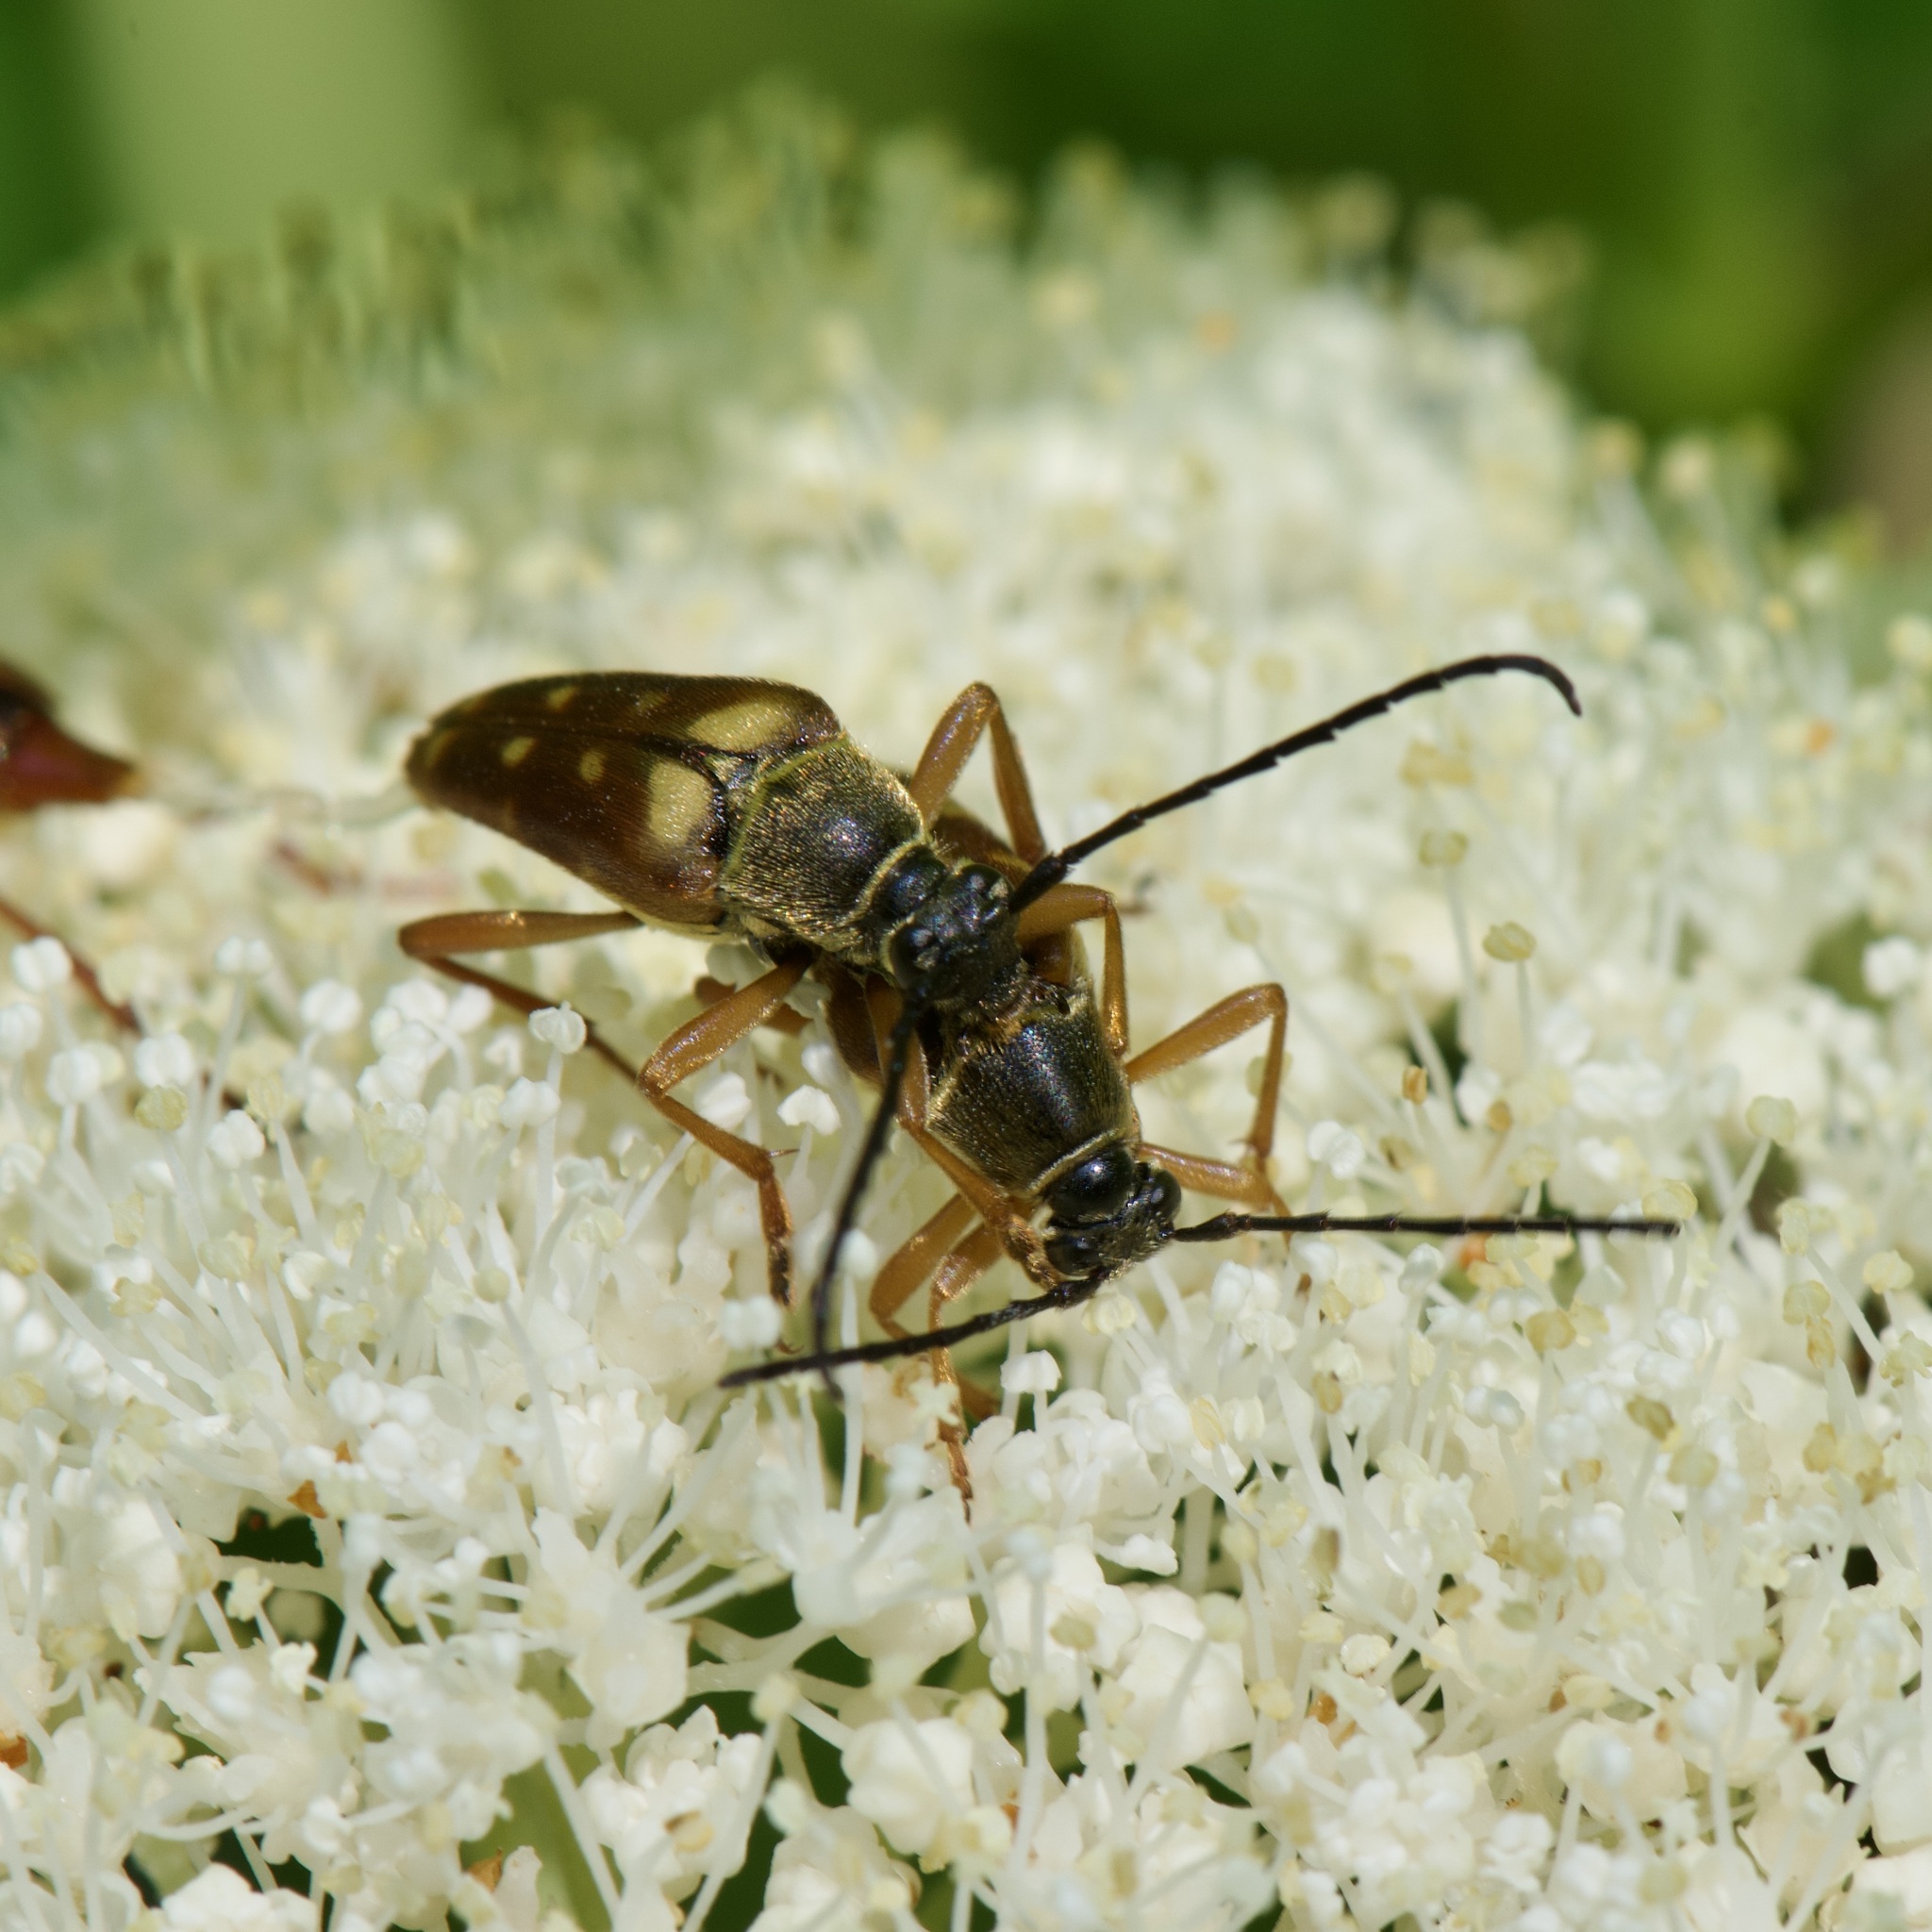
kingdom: Animalia
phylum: Arthropoda
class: Insecta
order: Coleoptera
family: Cerambycidae
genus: Typocerus
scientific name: Typocerus velutinus
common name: Banded longhorn beetle
